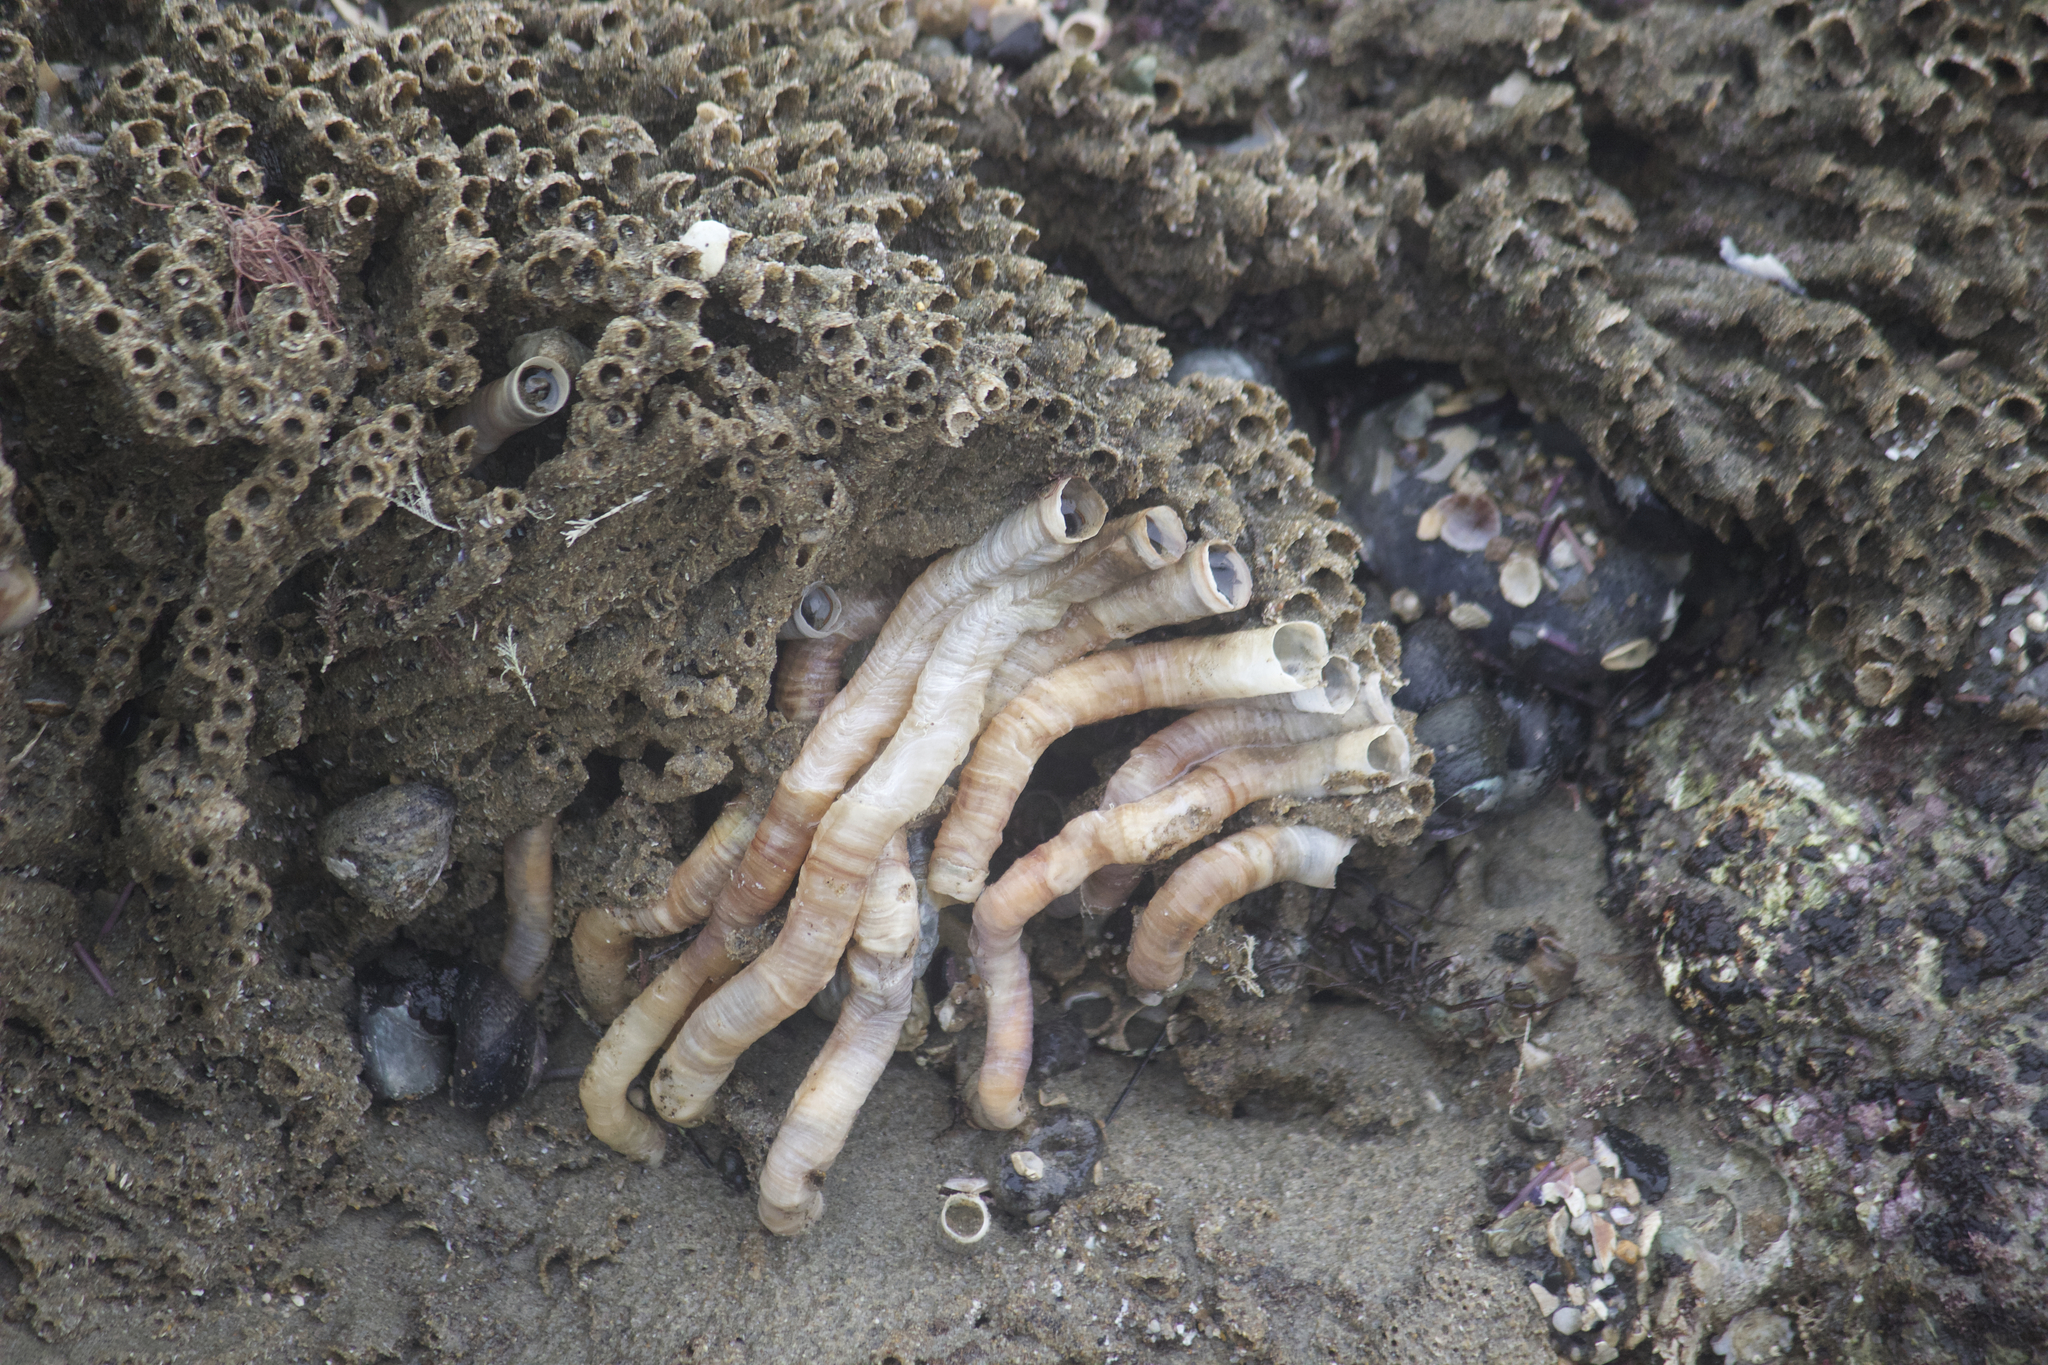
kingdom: Animalia
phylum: Mollusca
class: Gastropoda
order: Littorinimorpha
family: Vermetidae
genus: Thylacodes
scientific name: Thylacodes squamigerus
